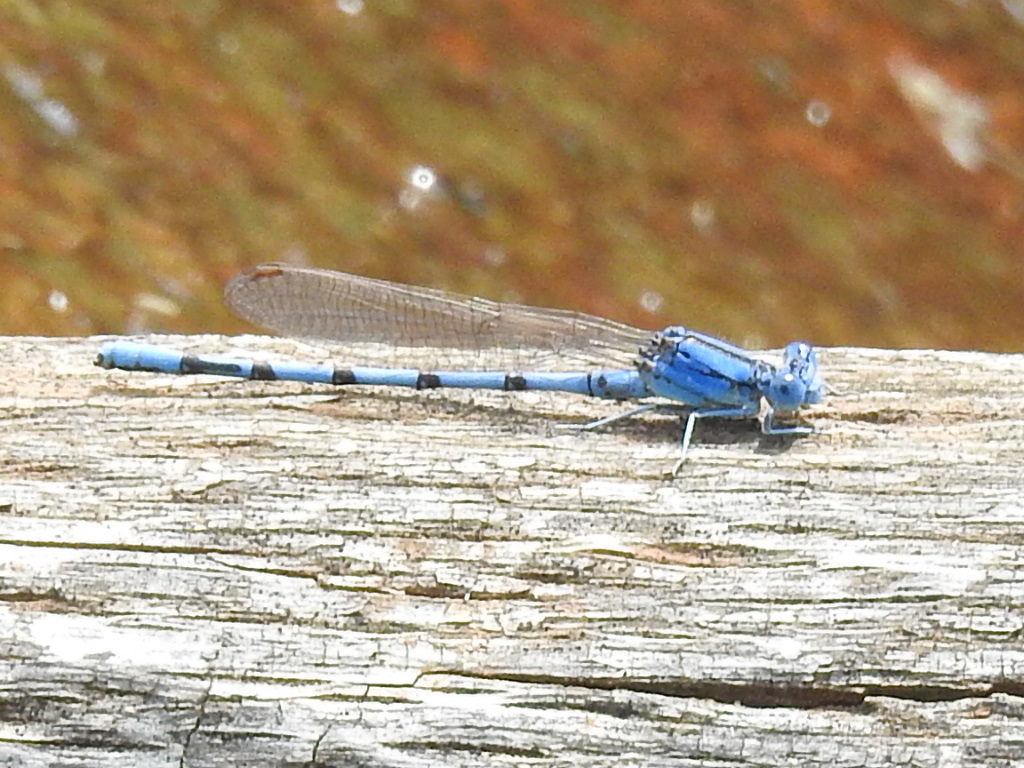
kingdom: Animalia
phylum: Arthropoda
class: Insecta
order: Odonata
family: Coenagrionidae
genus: Argia
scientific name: Argia nahuana
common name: Aztec dancer
